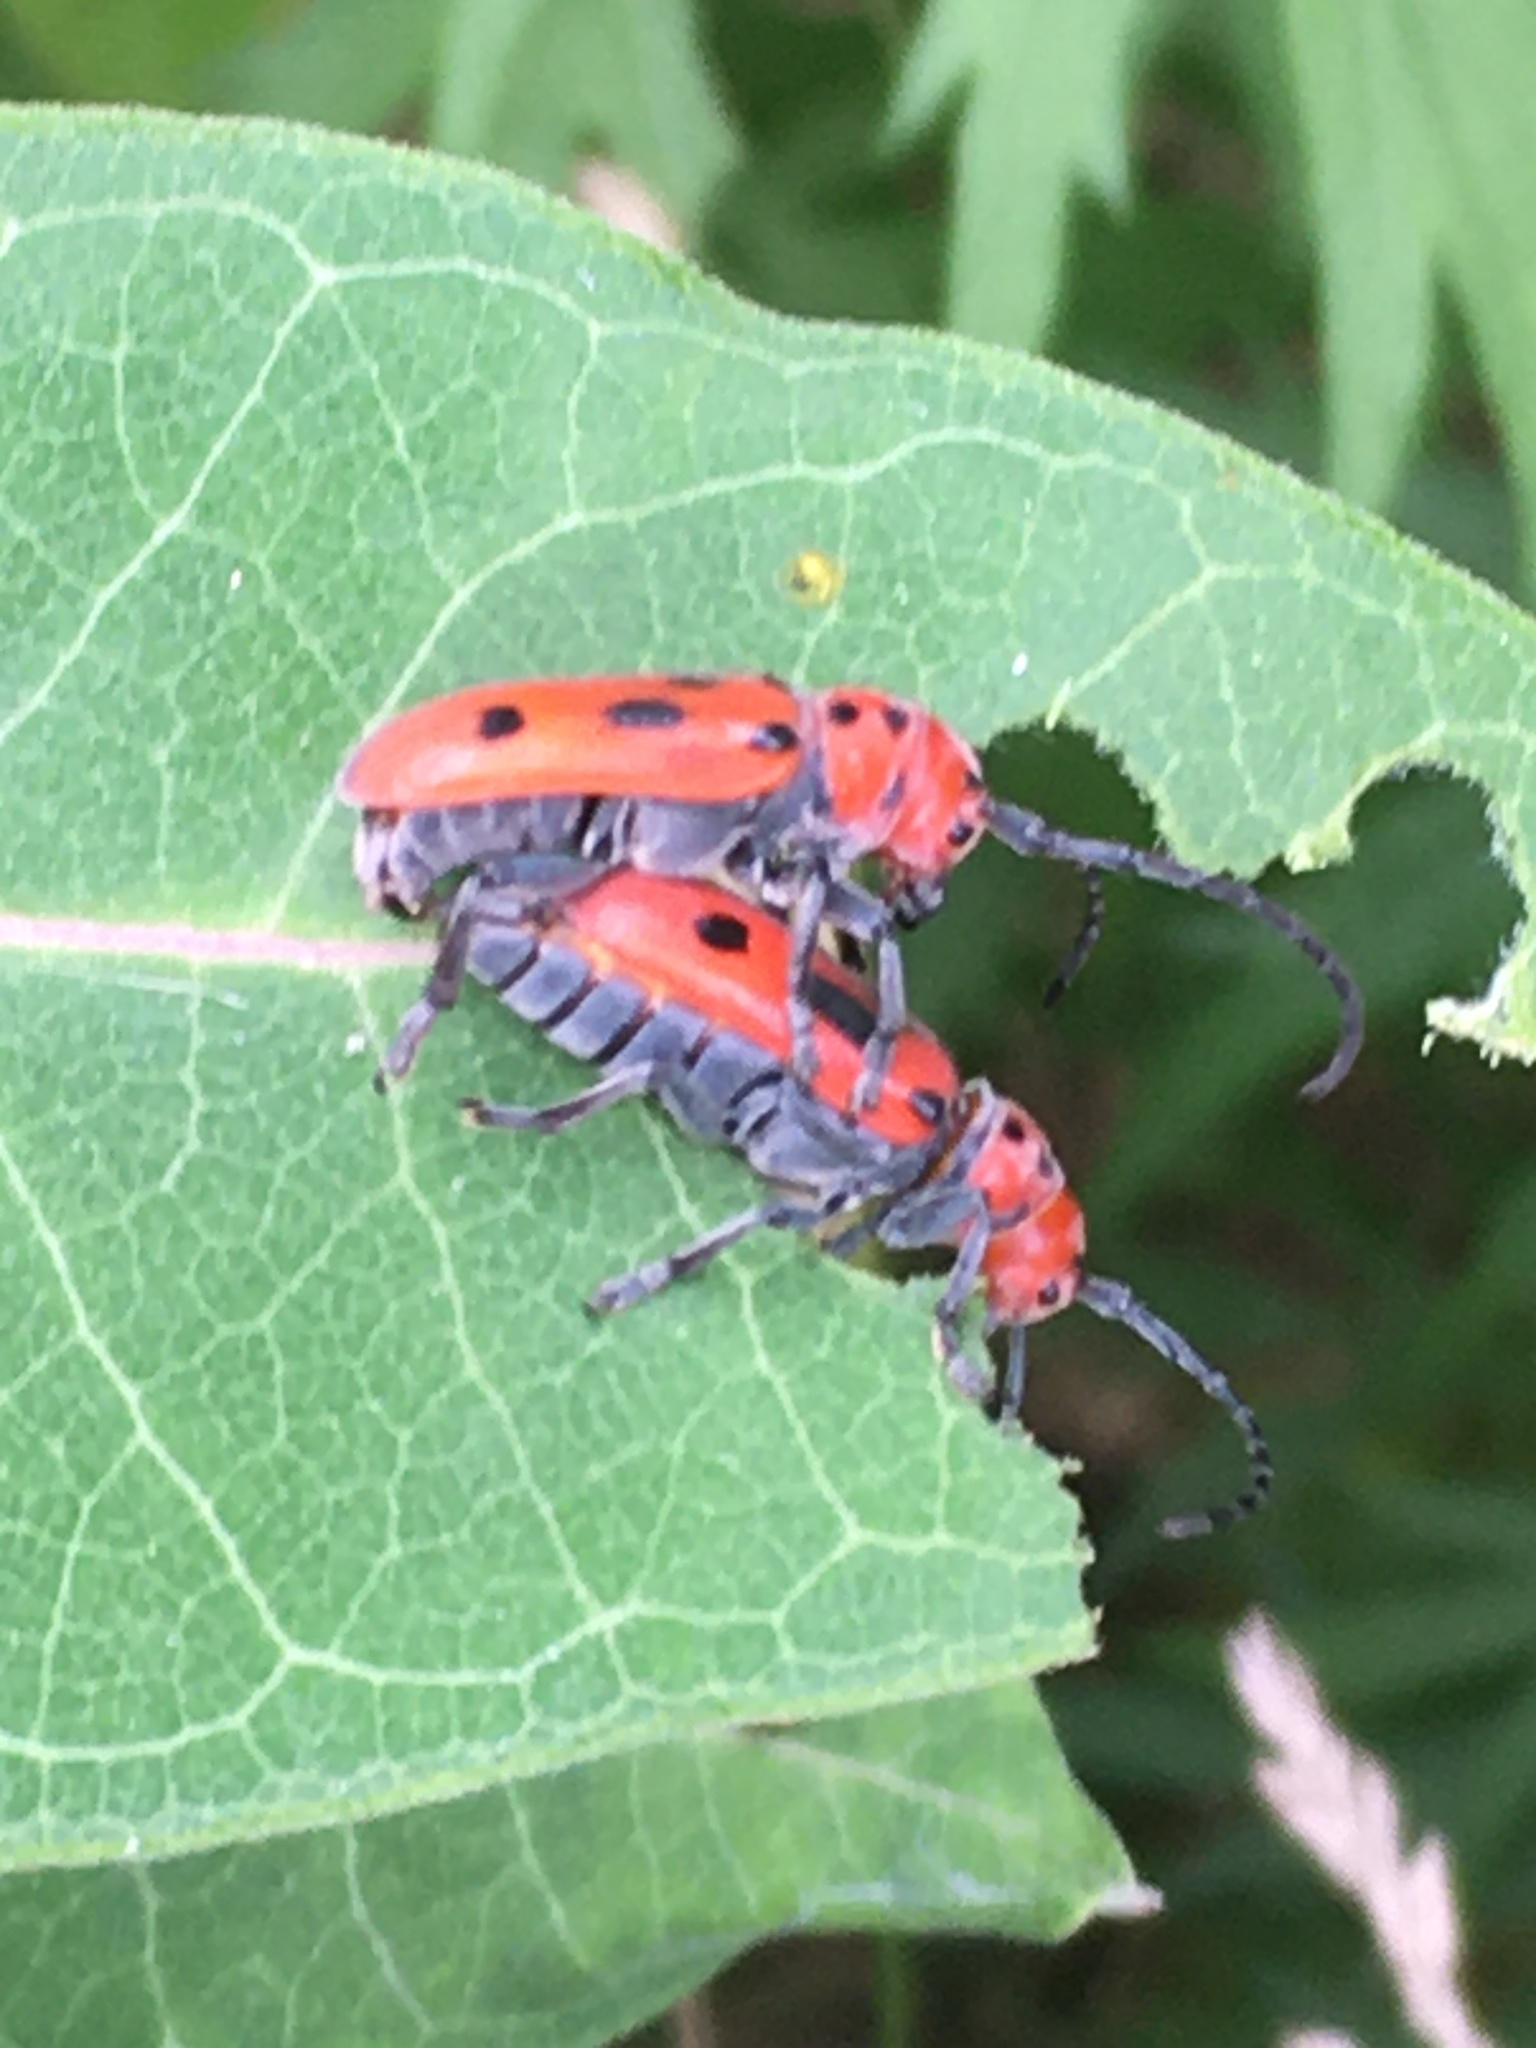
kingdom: Animalia
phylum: Arthropoda
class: Insecta
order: Coleoptera
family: Cerambycidae
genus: Tetraopes
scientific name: Tetraopes tetrophthalmus
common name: Red milkweed beetle
